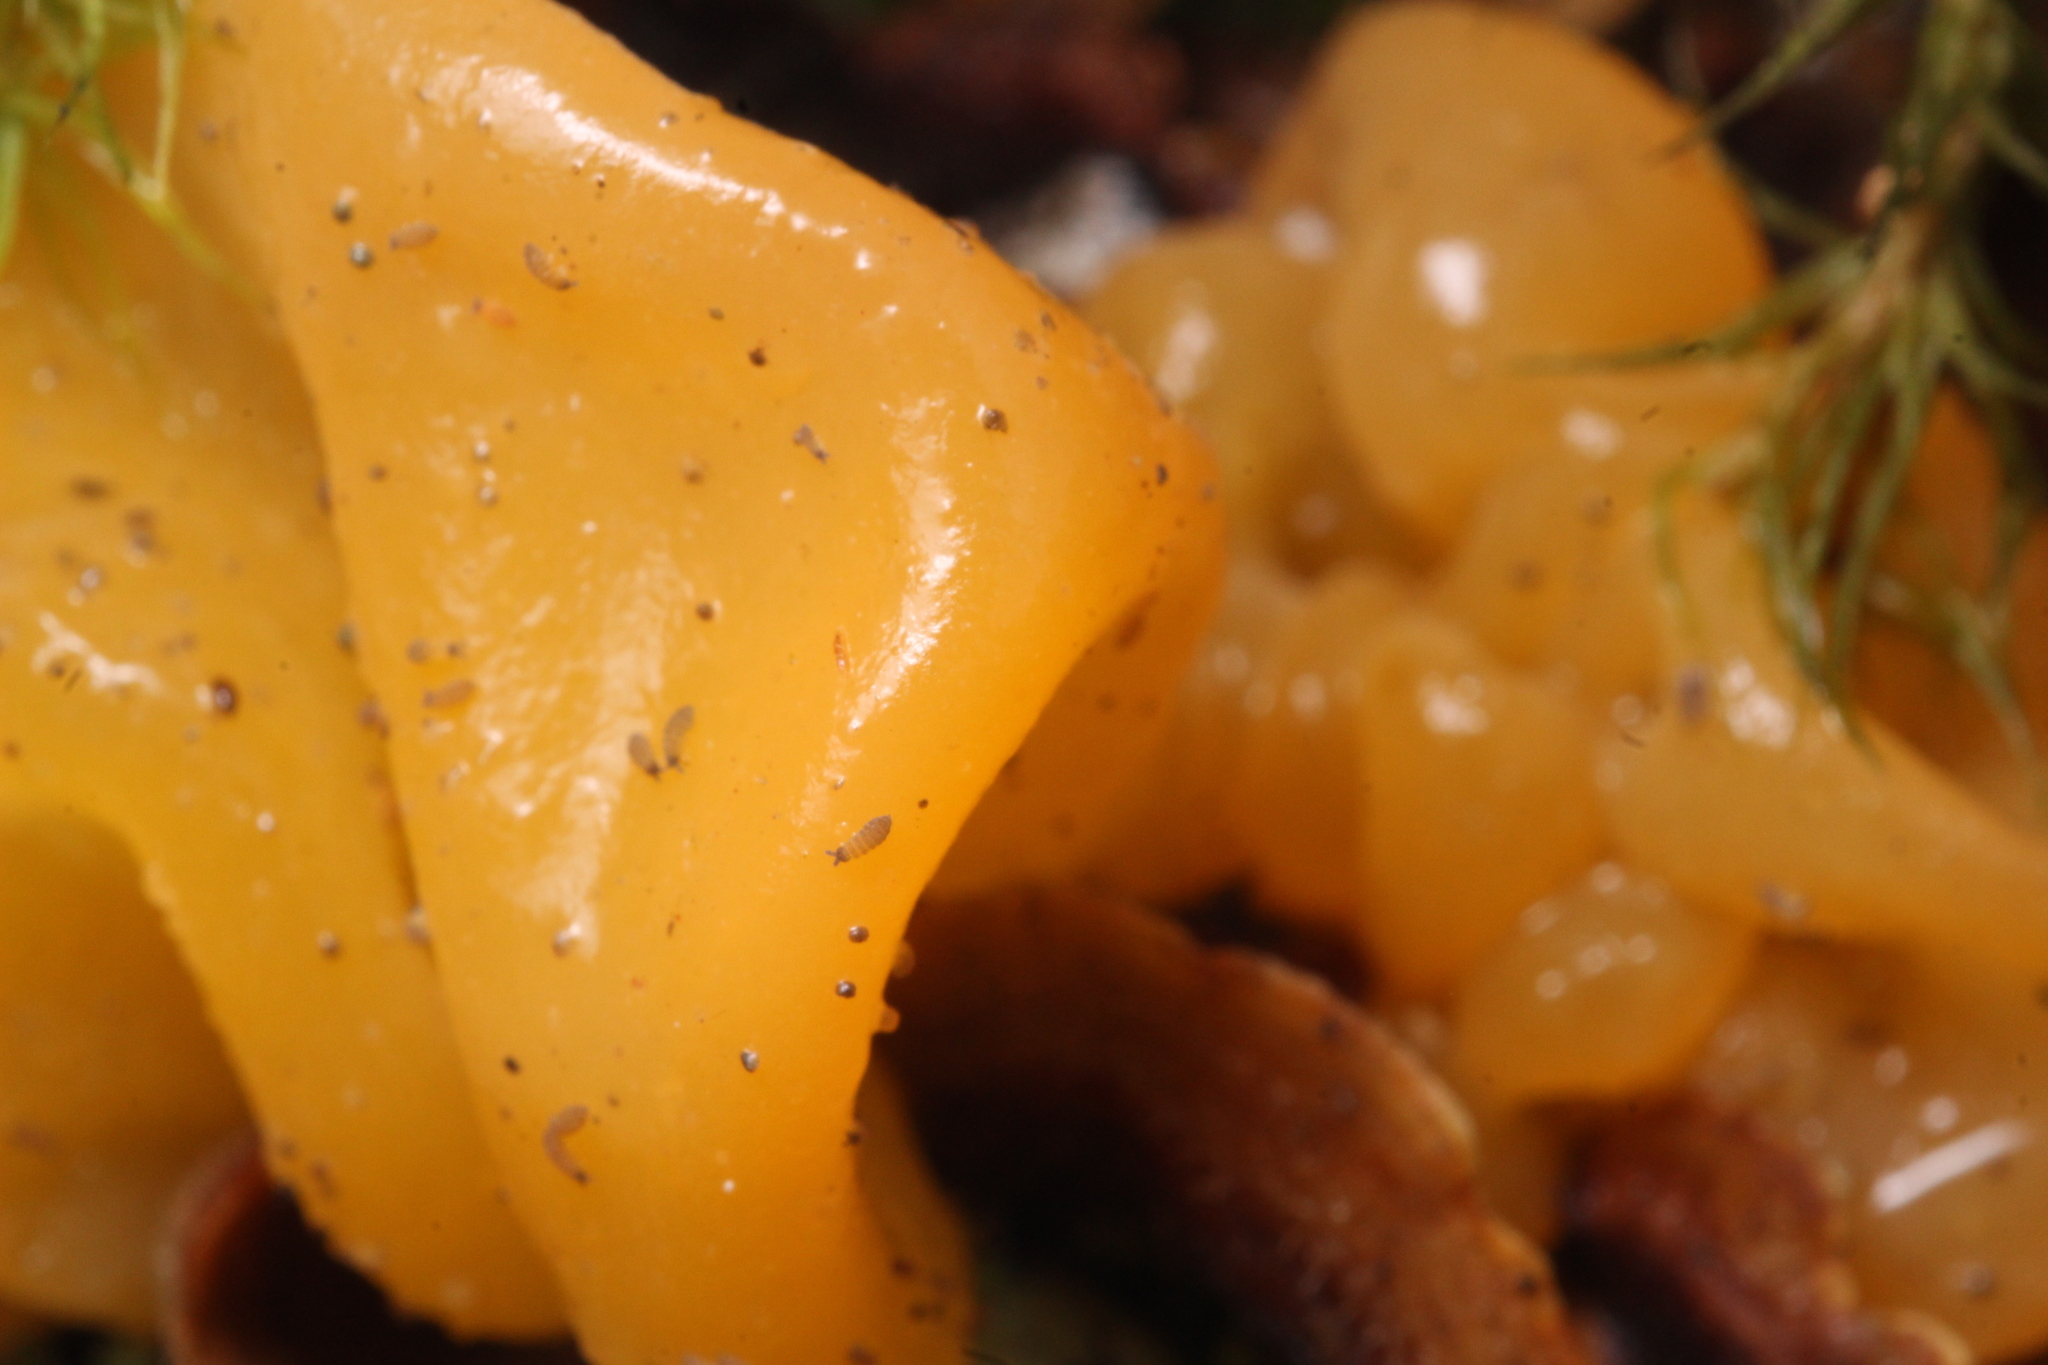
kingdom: Fungi
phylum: Basidiomycota
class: Tremellomycetes
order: Tremellales
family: Naemateliaceae
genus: Naematelia
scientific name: Naematelia aurantia
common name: Golden ear
